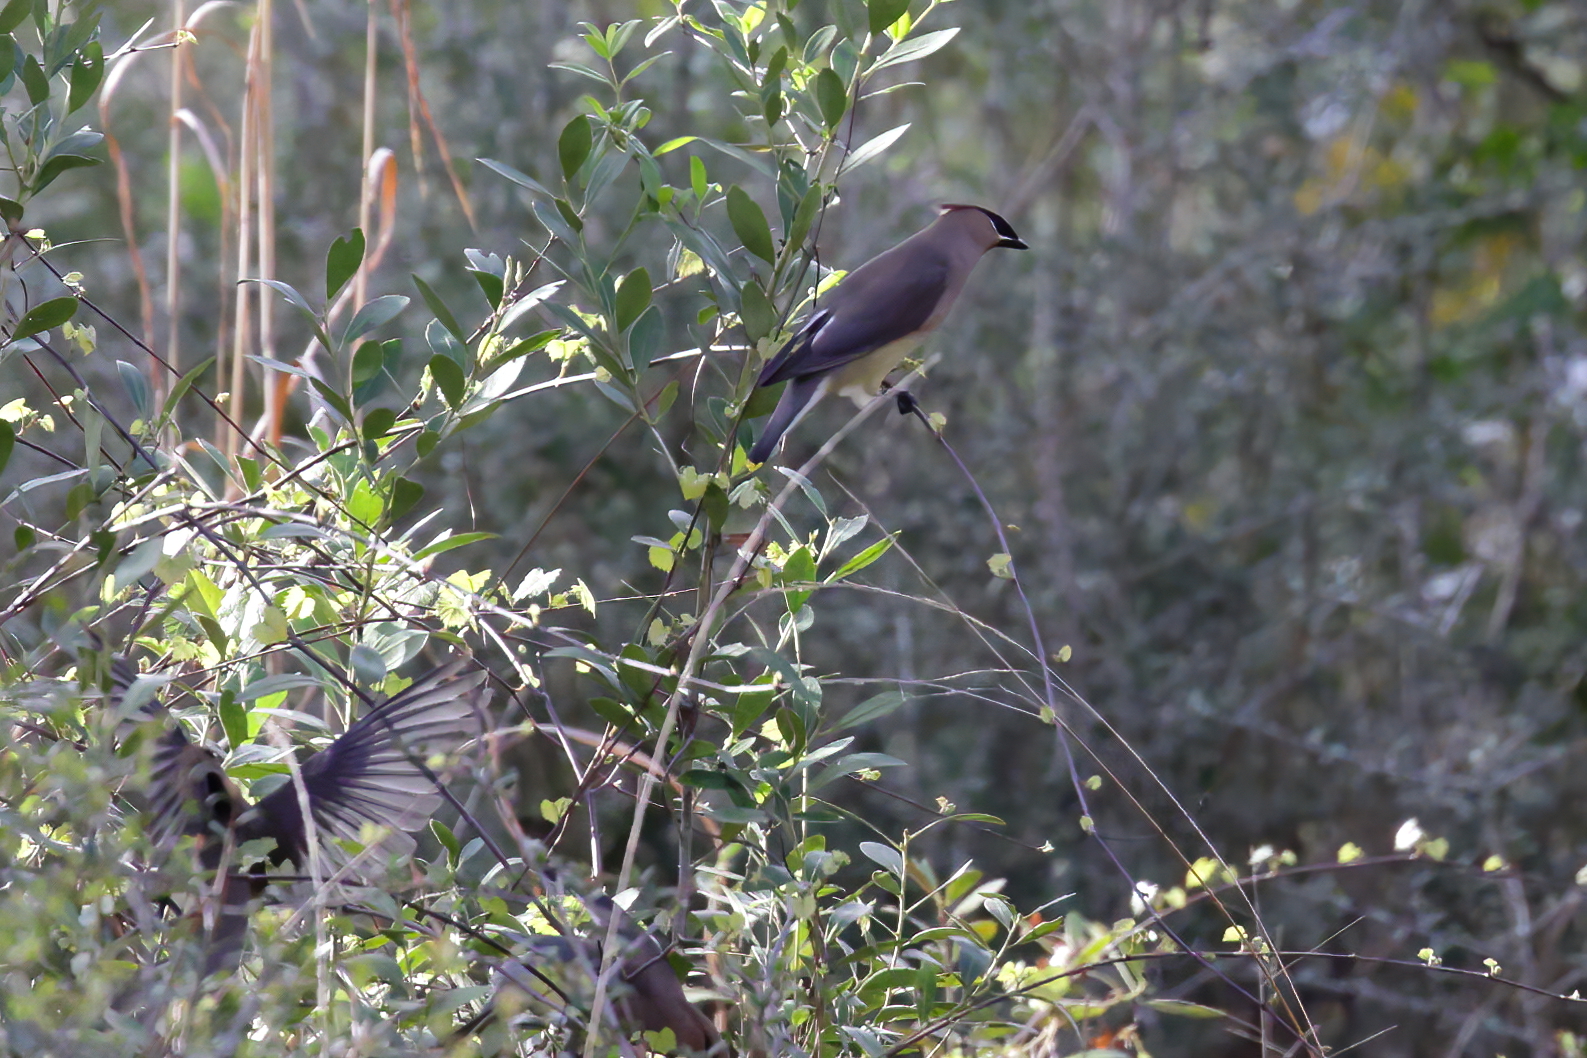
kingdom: Animalia
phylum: Chordata
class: Aves
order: Passeriformes
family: Bombycillidae
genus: Bombycilla
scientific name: Bombycilla cedrorum
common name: Cedar waxwing
